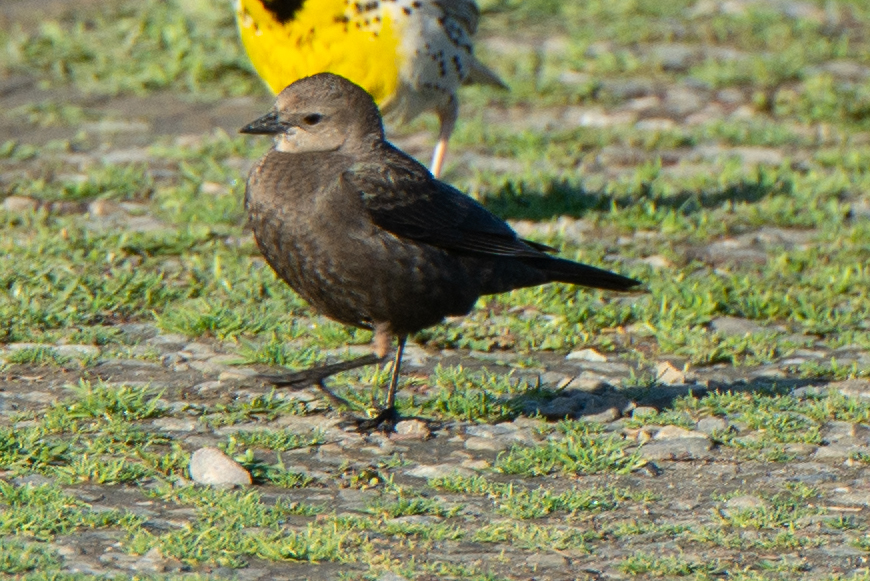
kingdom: Animalia
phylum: Chordata
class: Aves
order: Passeriformes
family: Icteridae
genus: Euphagus
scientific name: Euphagus cyanocephalus
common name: Brewer's blackbird
